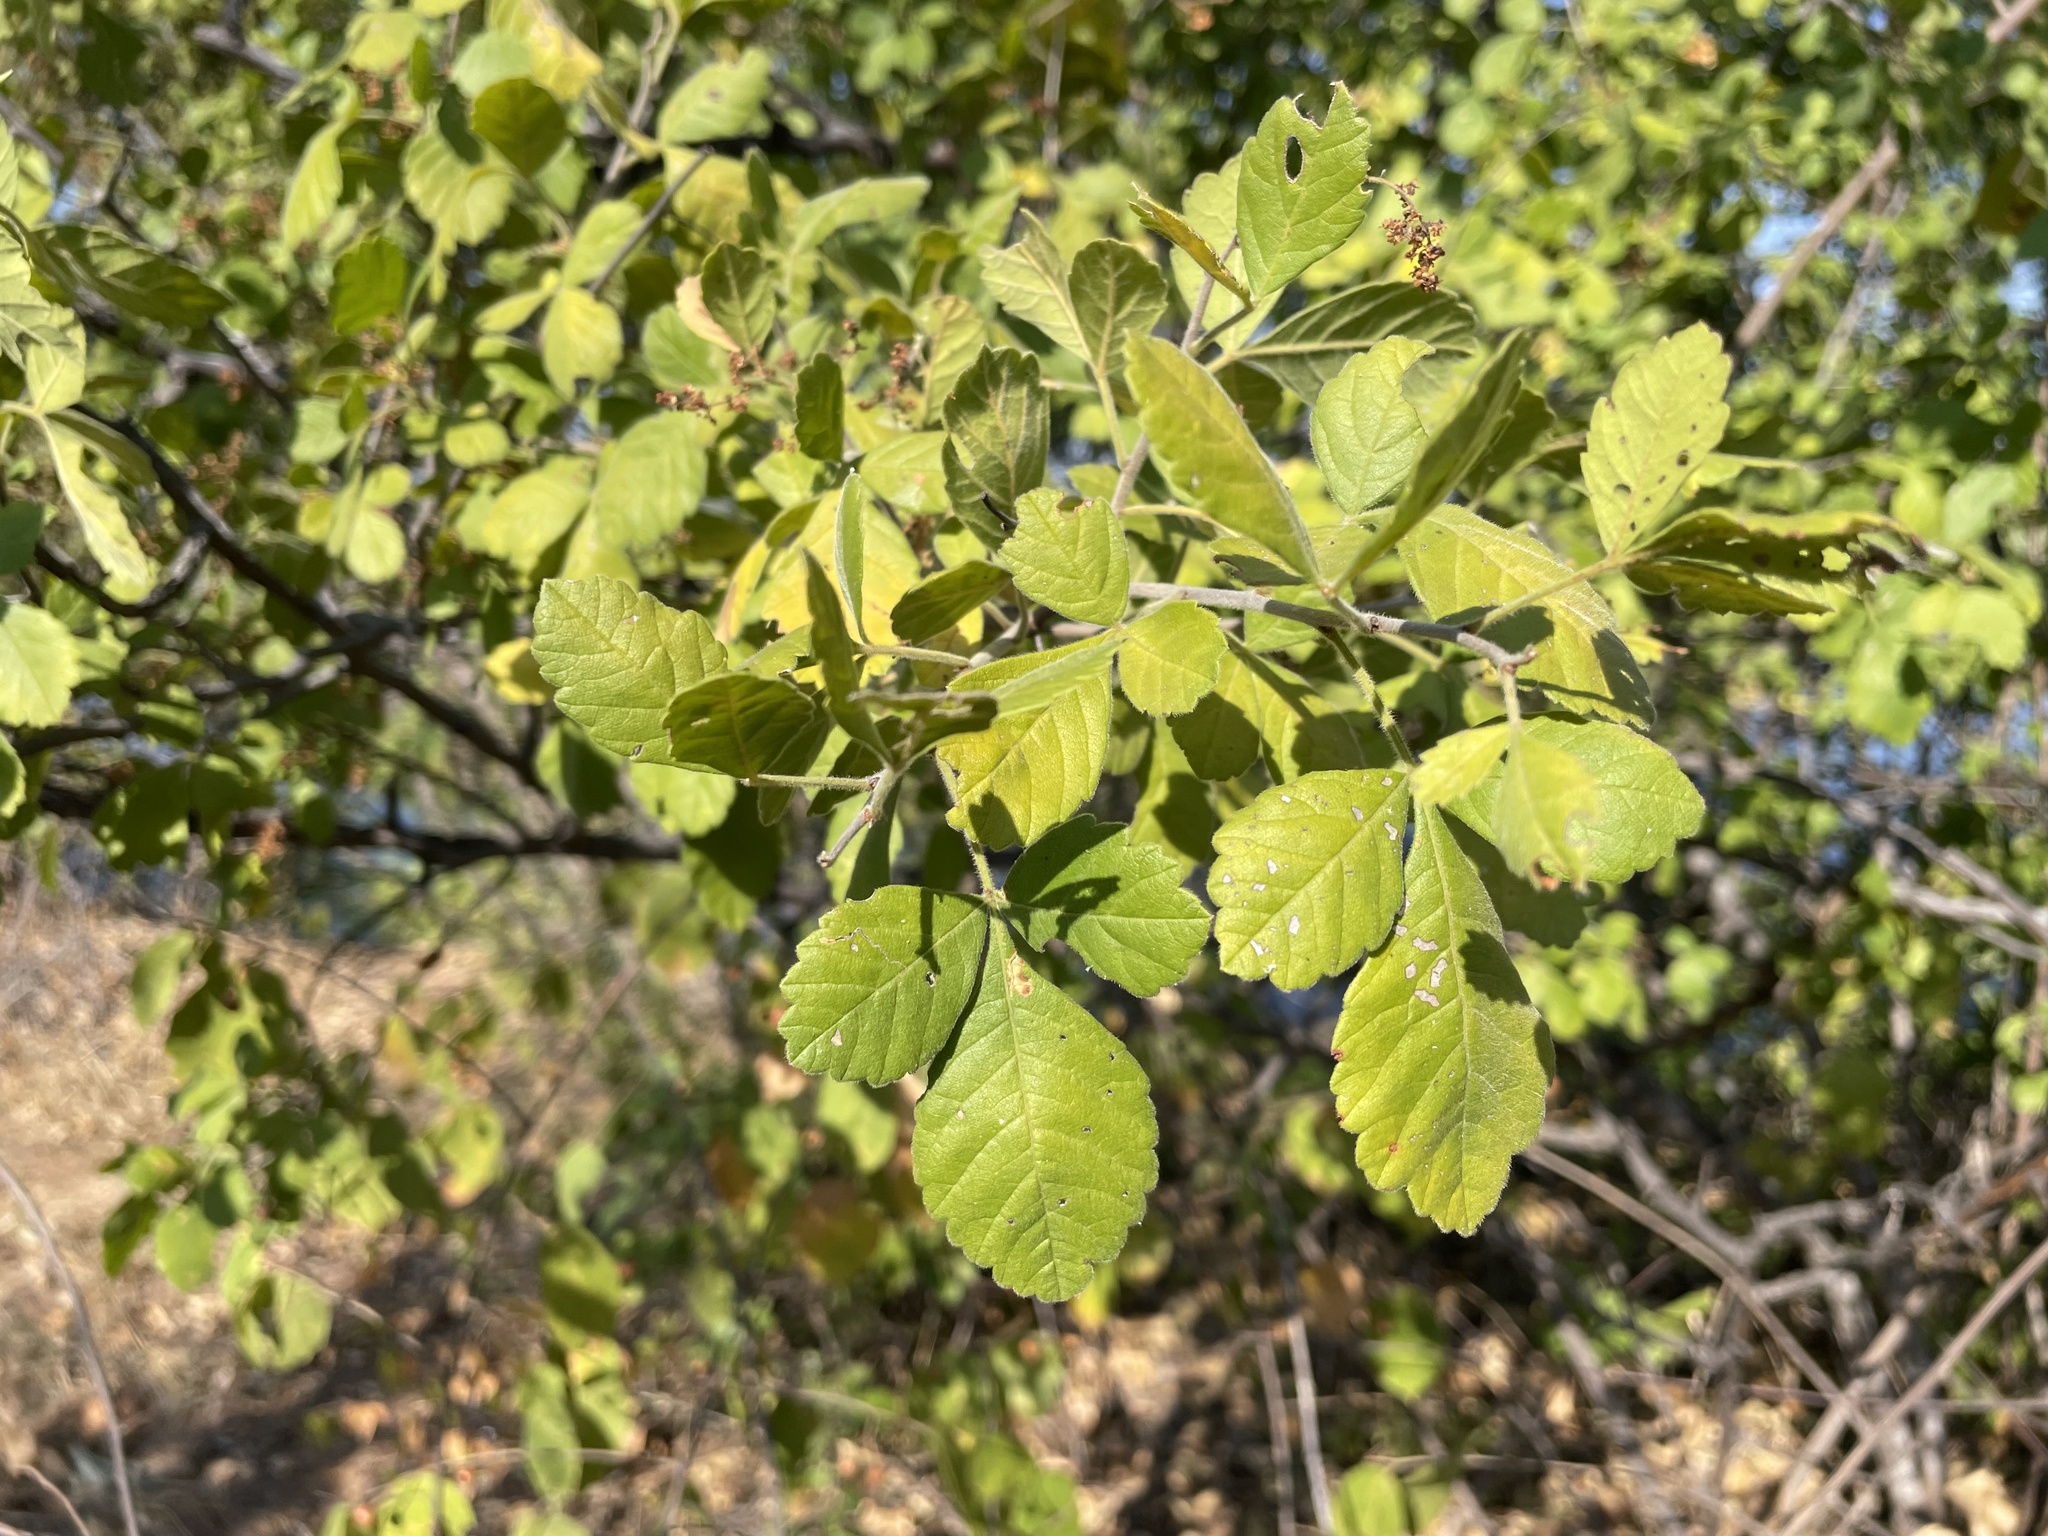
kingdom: Plantae
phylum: Tracheophyta
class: Magnoliopsida
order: Sapindales
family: Anacardiaceae
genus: Searsia
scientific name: Searsia tenuinervis
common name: Hyaena taaibos
